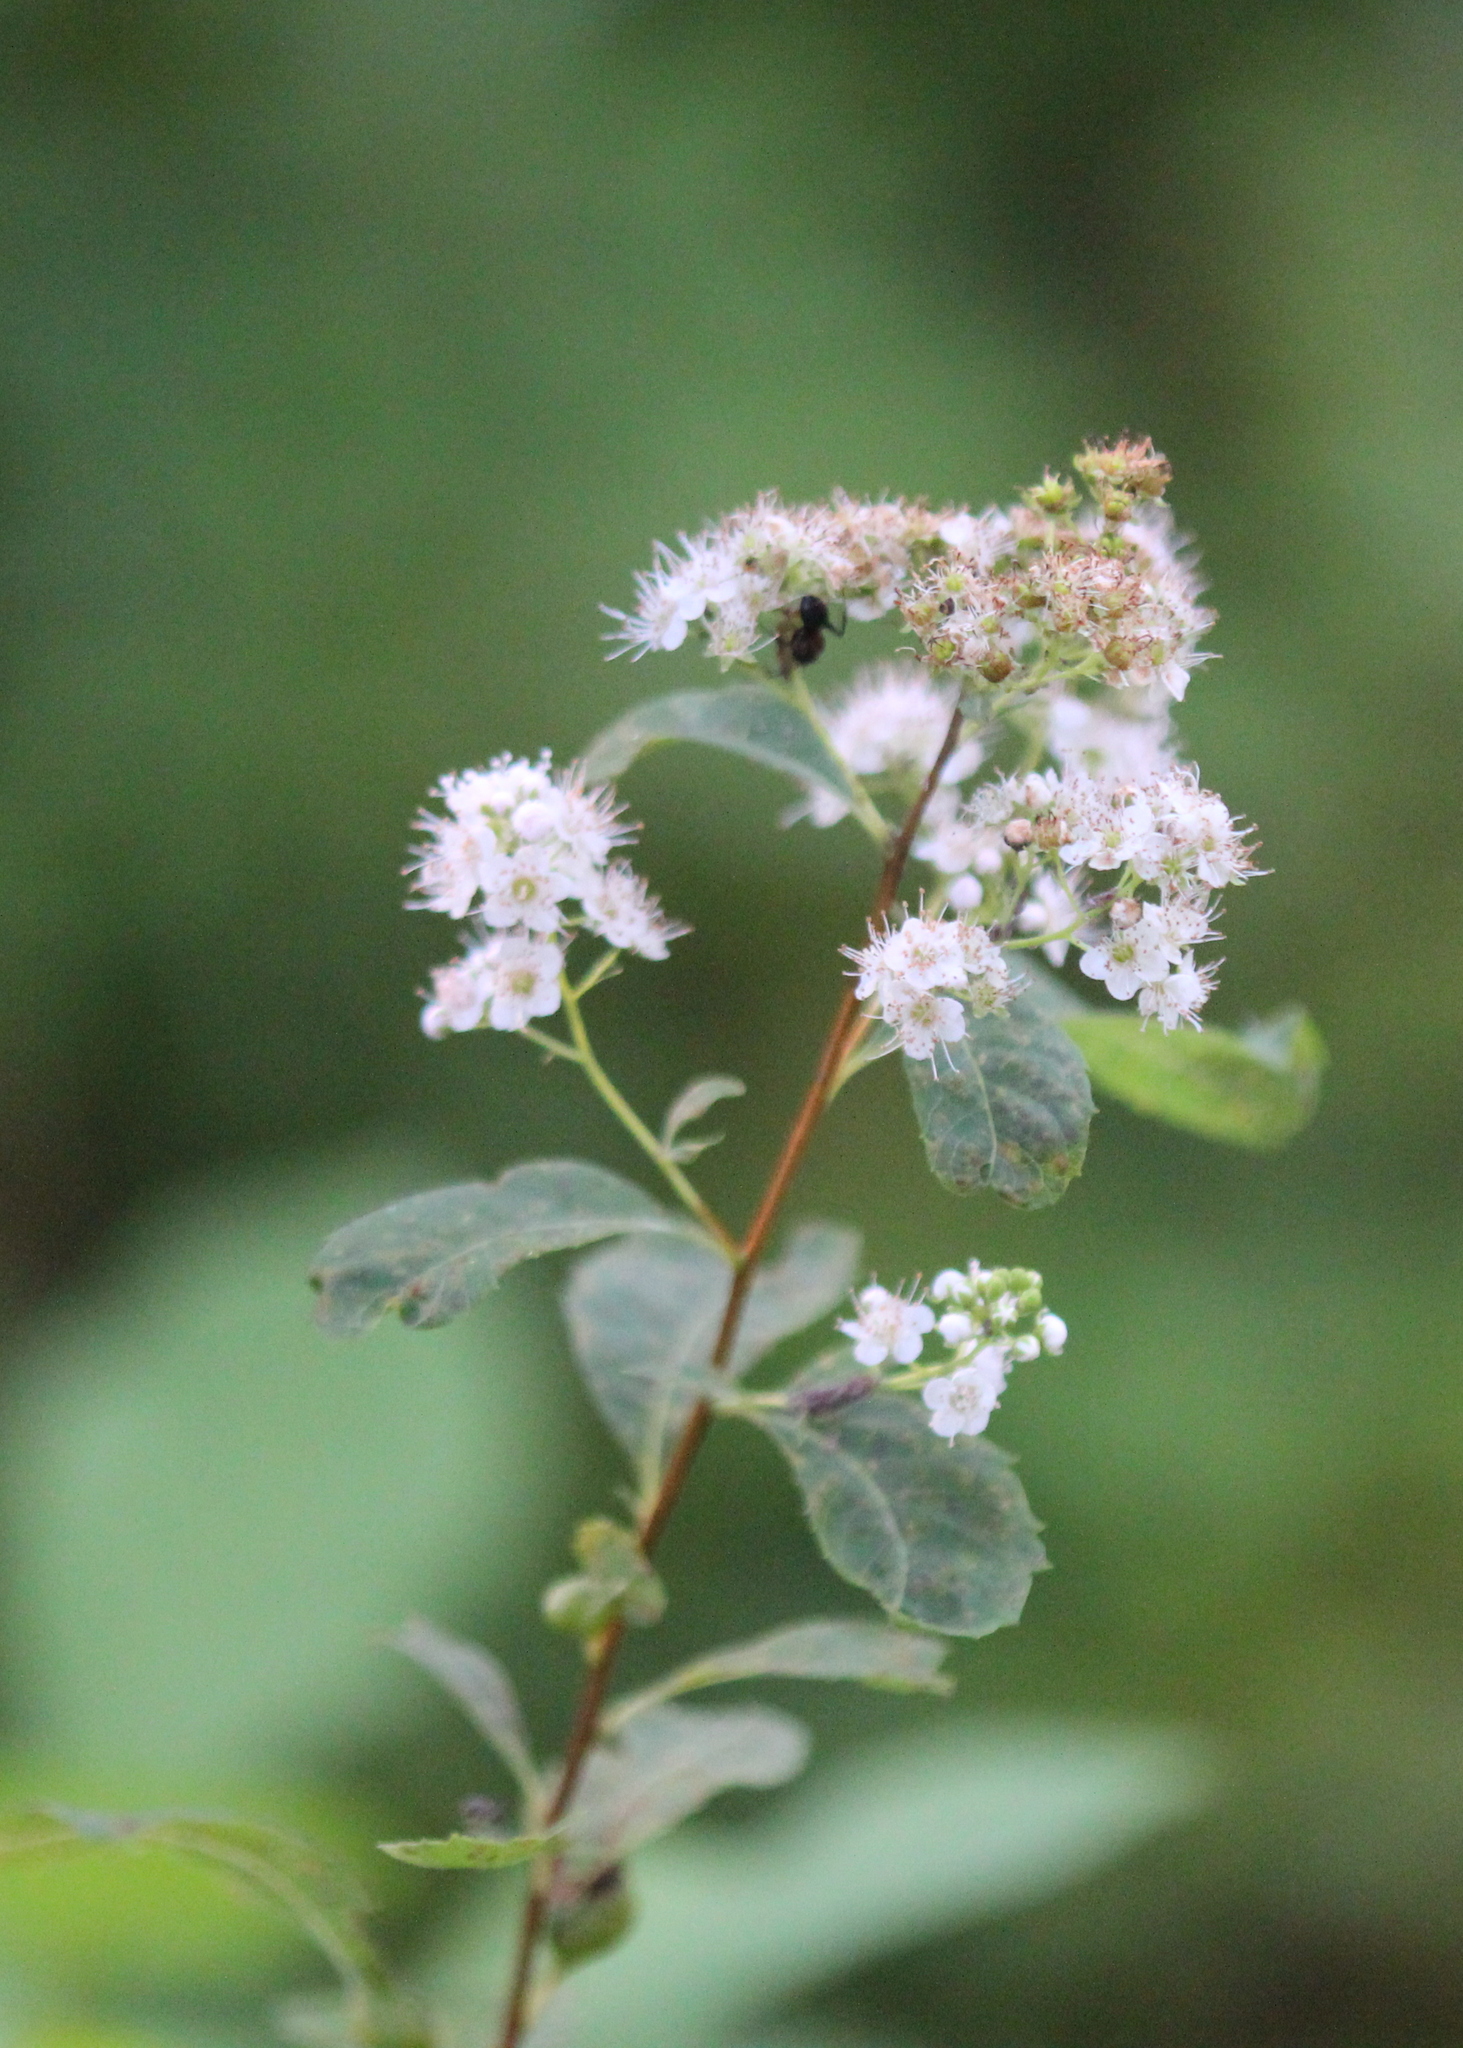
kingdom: Plantae
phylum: Tracheophyta
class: Magnoliopsida
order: Rosales
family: Rosaceae
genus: Spiraea
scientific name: Spiraea alba
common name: Pale bridewort
